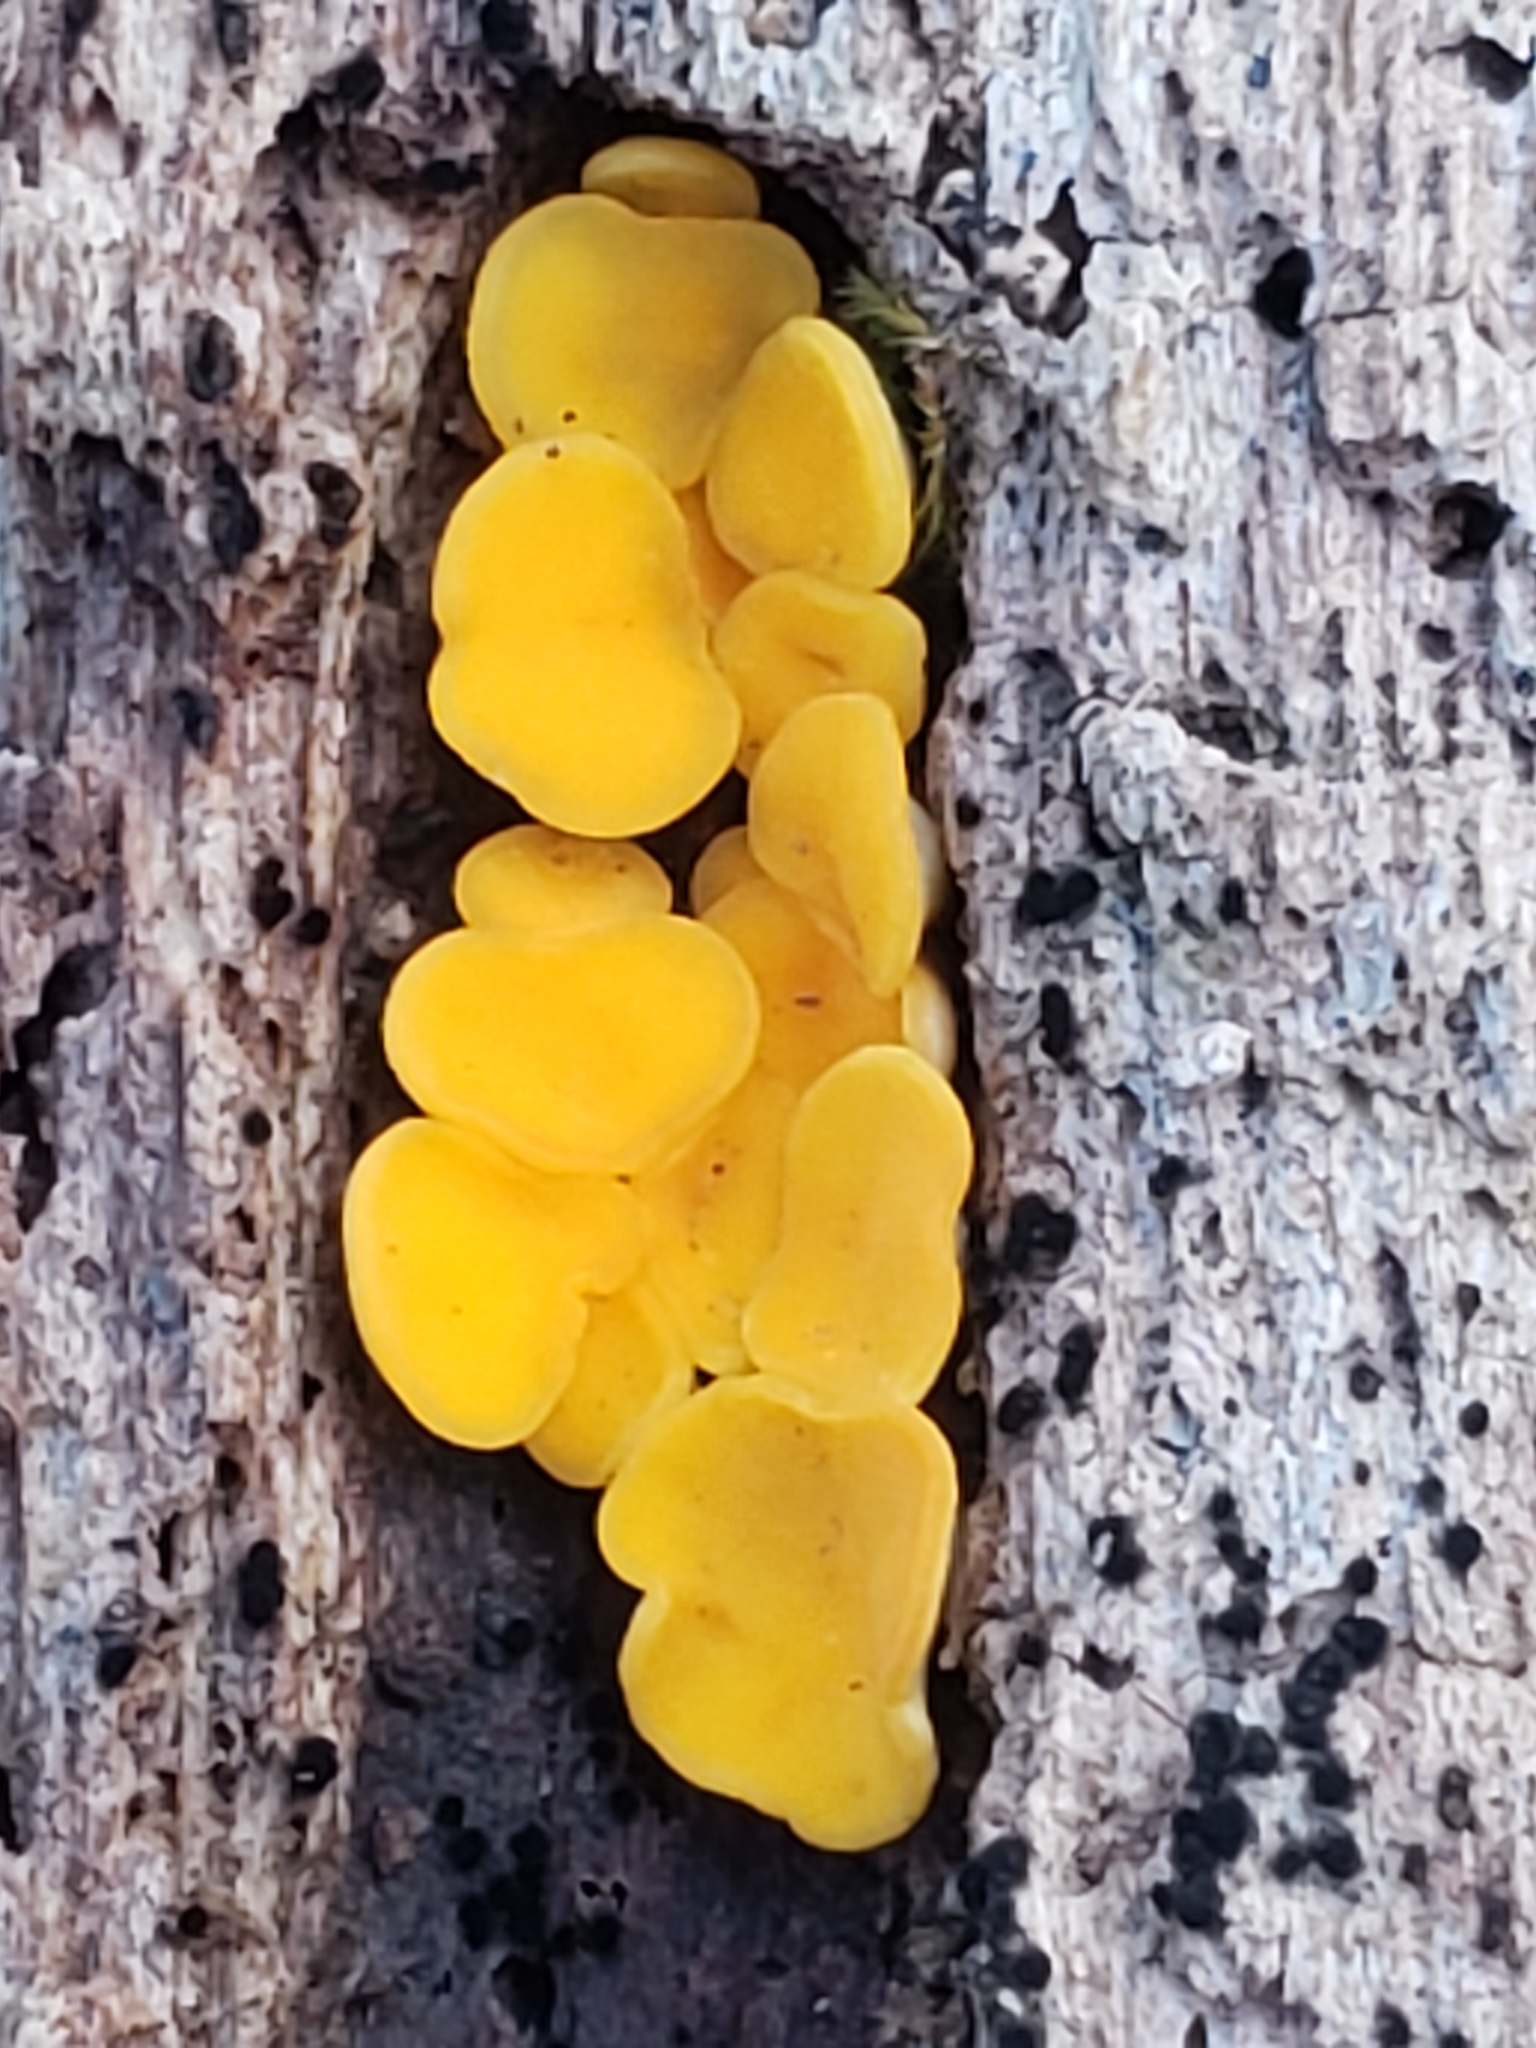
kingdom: Fungi
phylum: Ascomycota
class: Leotiomycetes
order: Helotiales
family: Pezizellaceae
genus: Calycina
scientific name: Calycina citrina
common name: Yellow fairy cups
